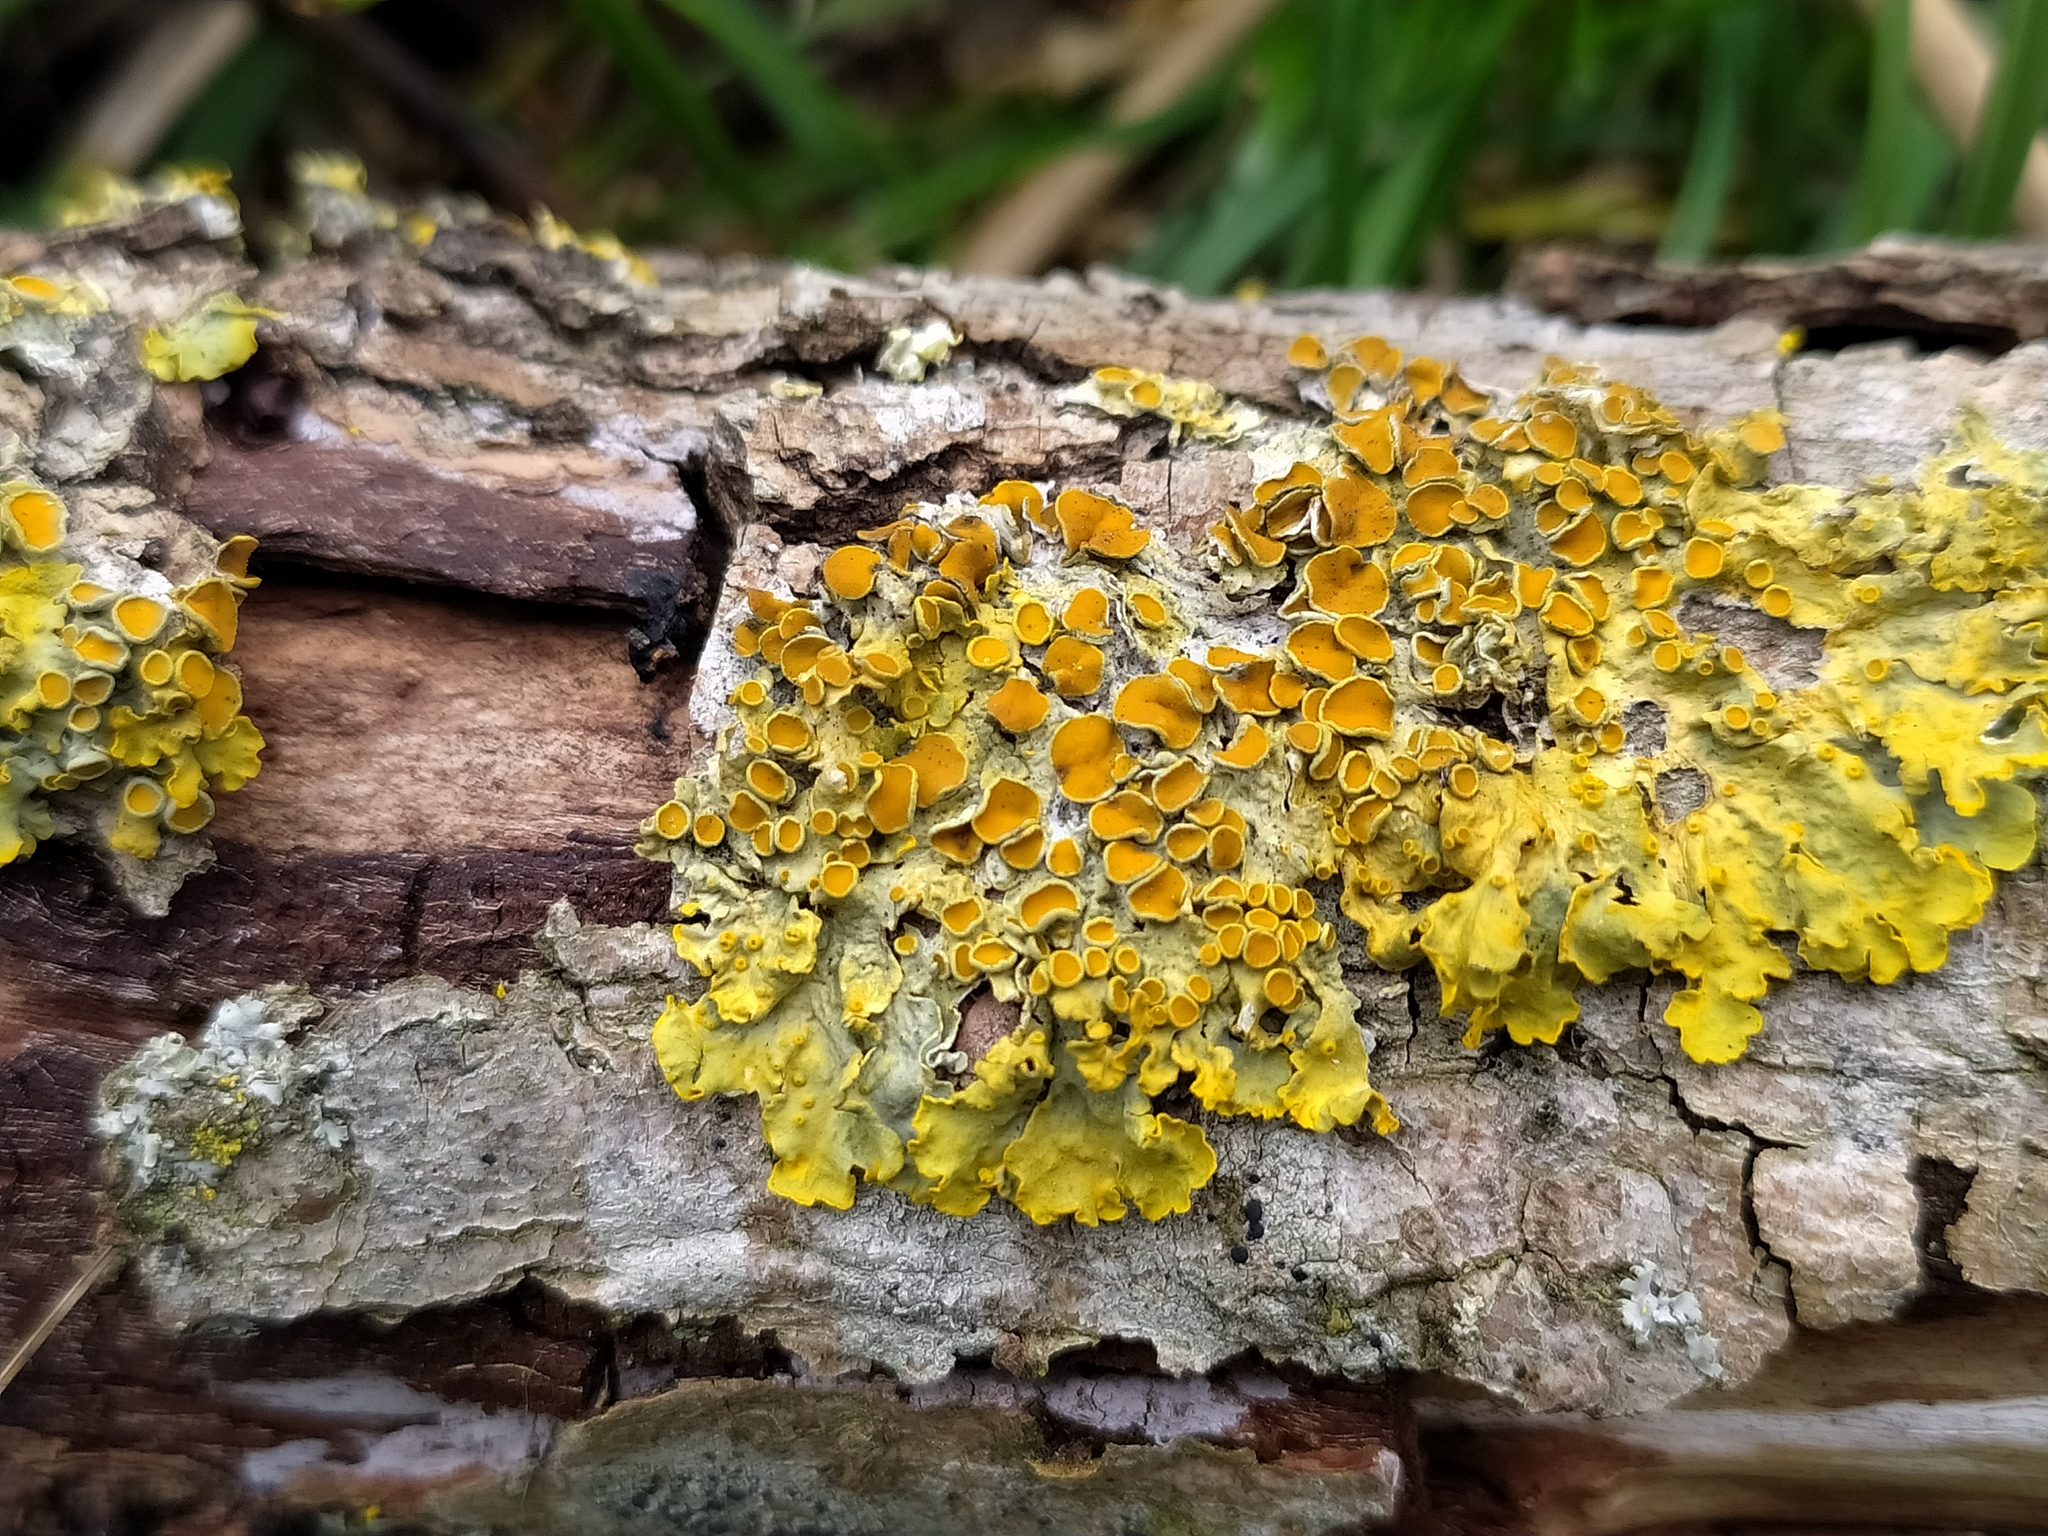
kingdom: Fungi
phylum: Ascomycota
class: Lecanoromycetes
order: Teloschistales
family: Teloschistaceae
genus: Xanthoria
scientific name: Xanthoria parietina
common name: Common orange lichen
